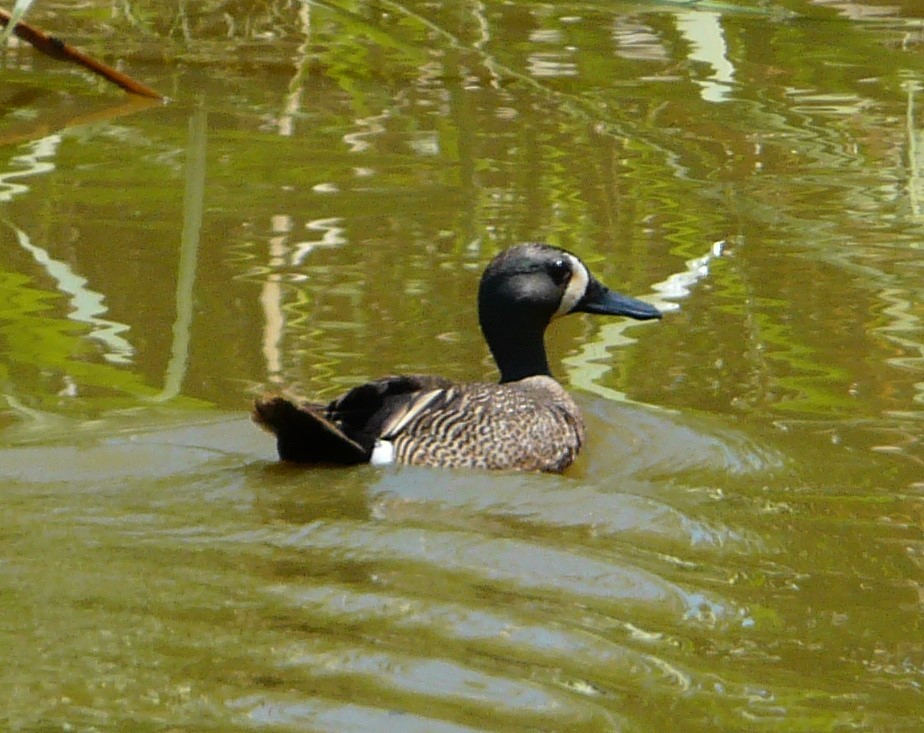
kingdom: Animalia
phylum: Chordata
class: Aves
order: Anseriformes
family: Anatidae
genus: Spatula
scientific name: Spatula discors
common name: Blue-winged teal
